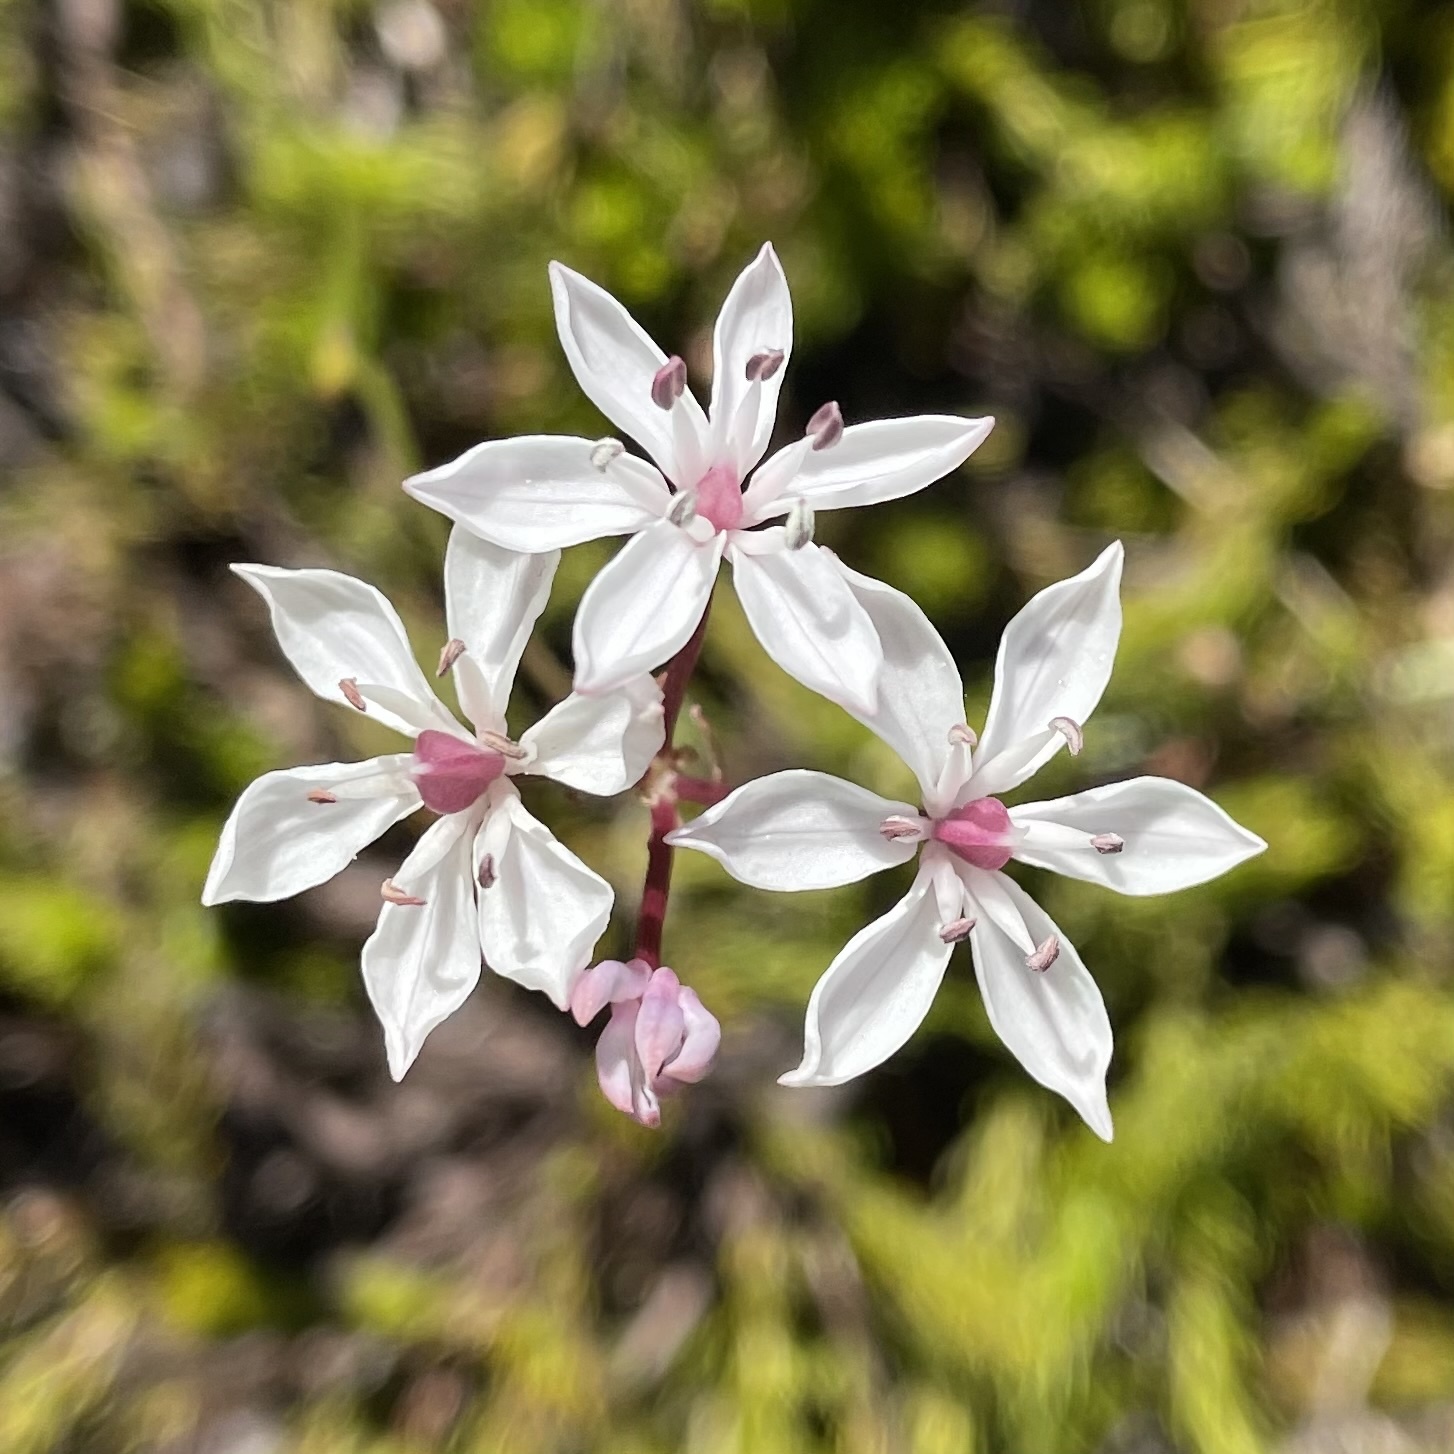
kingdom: Plantae
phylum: Tracheophyta
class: Liliopsida
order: Liliales
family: Colchicaceae
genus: Burchardia
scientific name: Burchardia umbellata
